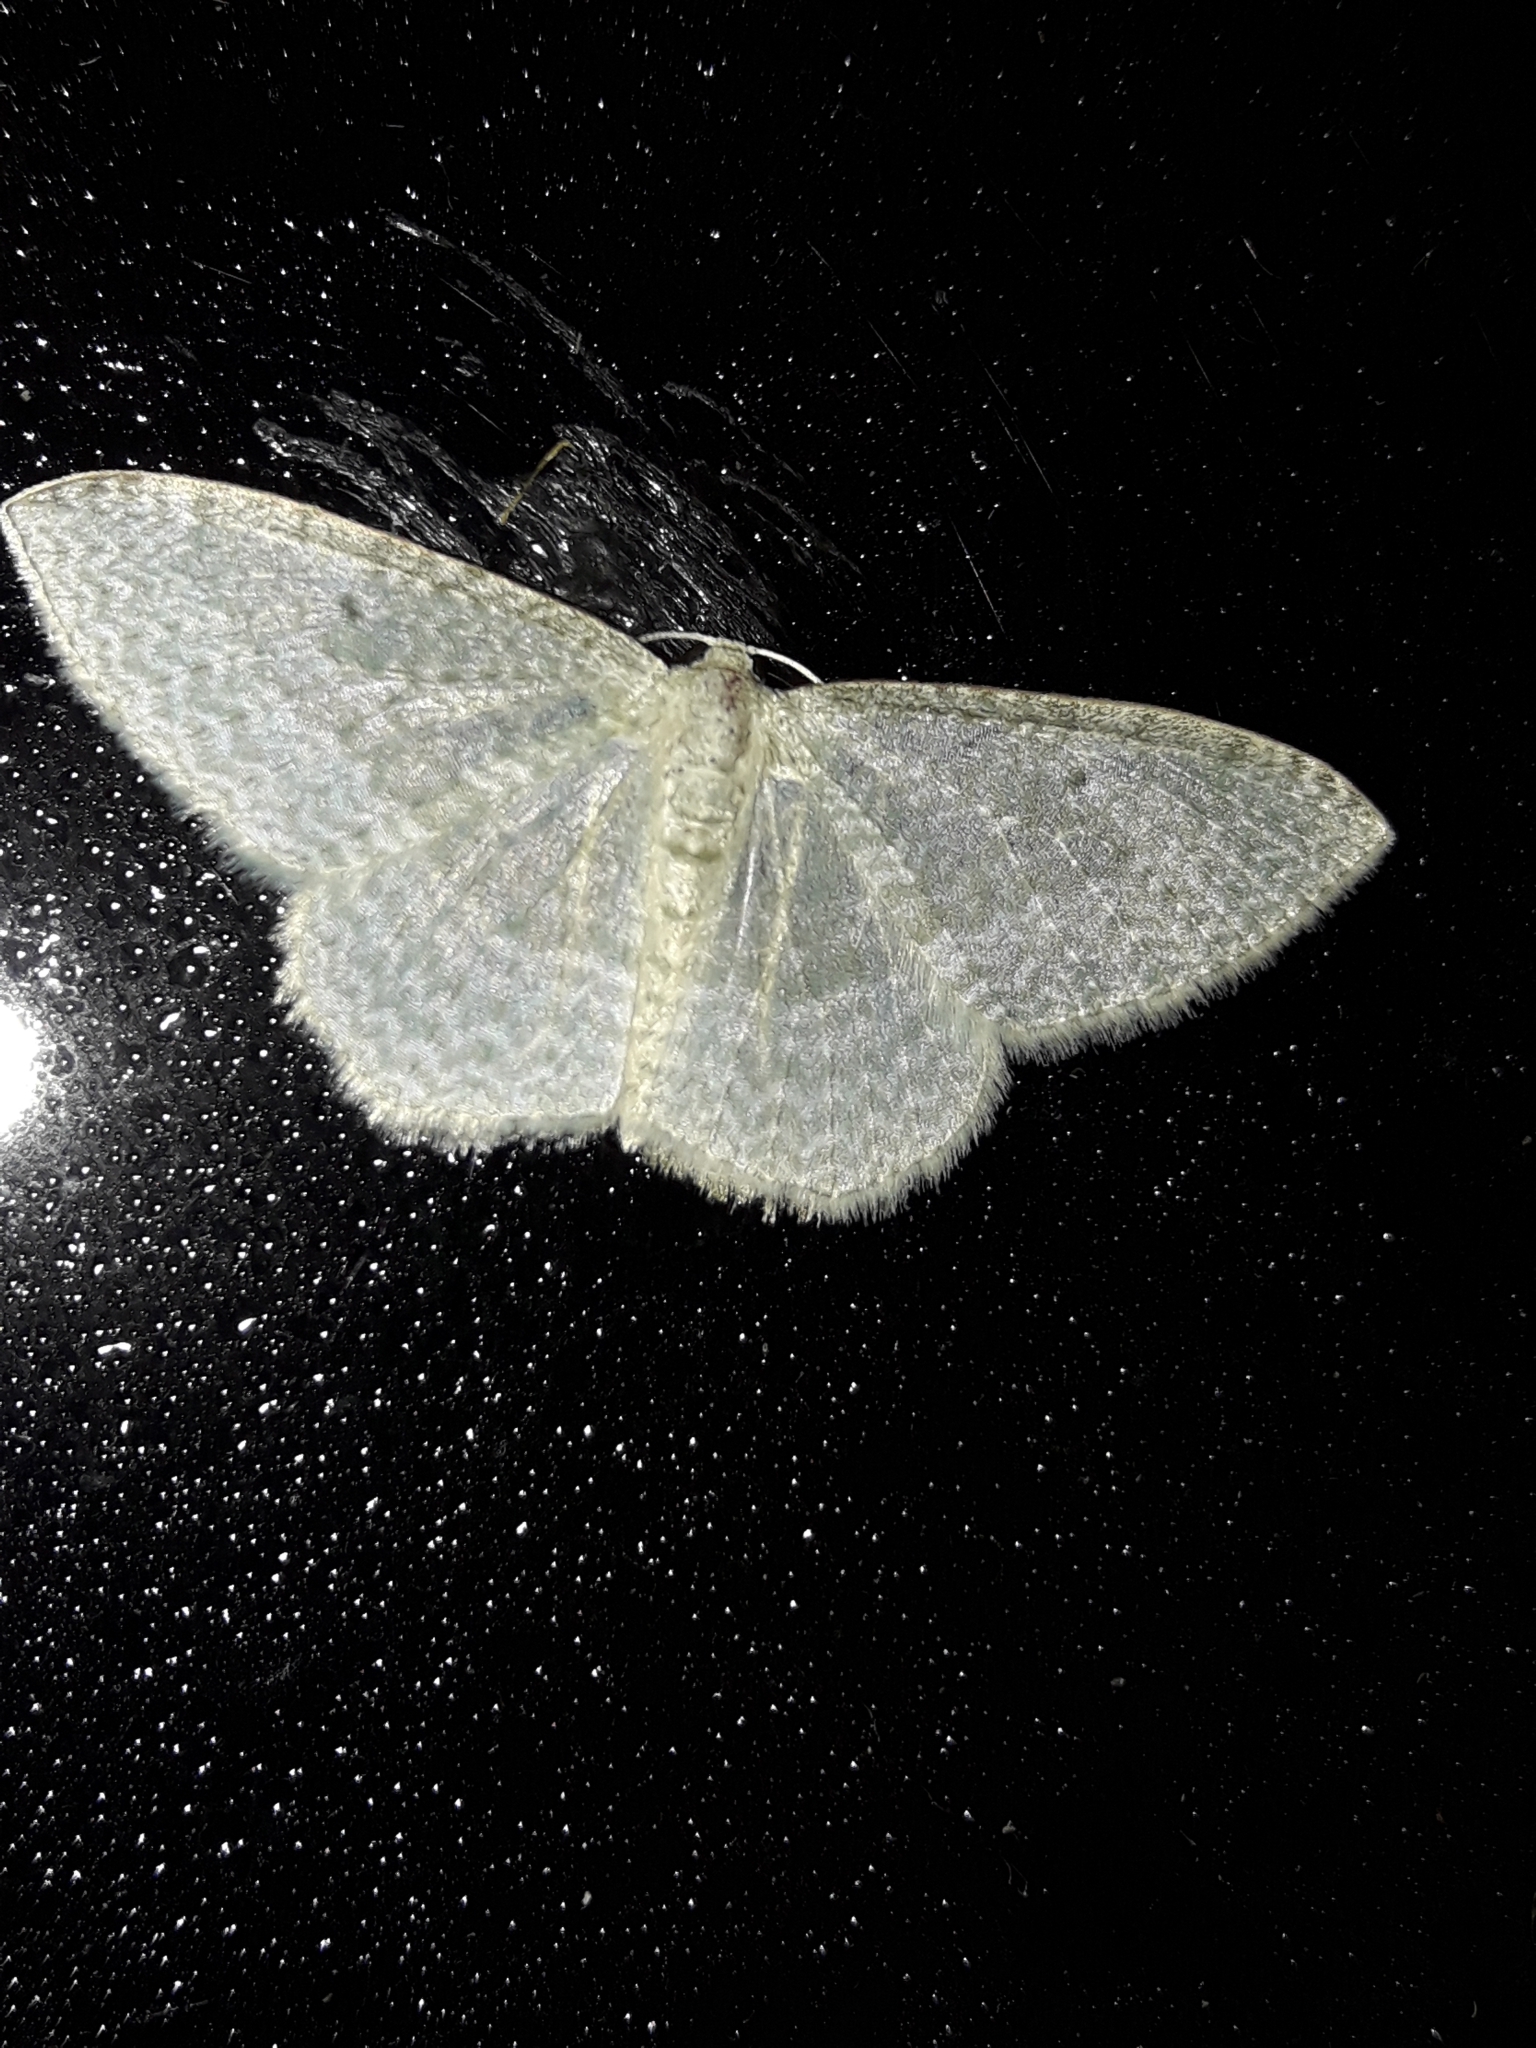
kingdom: Animalia
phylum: Arthropoda
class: Insecta
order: Lepidoptera
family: Geometridae
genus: Poecilasthena
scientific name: Poecilasthena pulchraria
